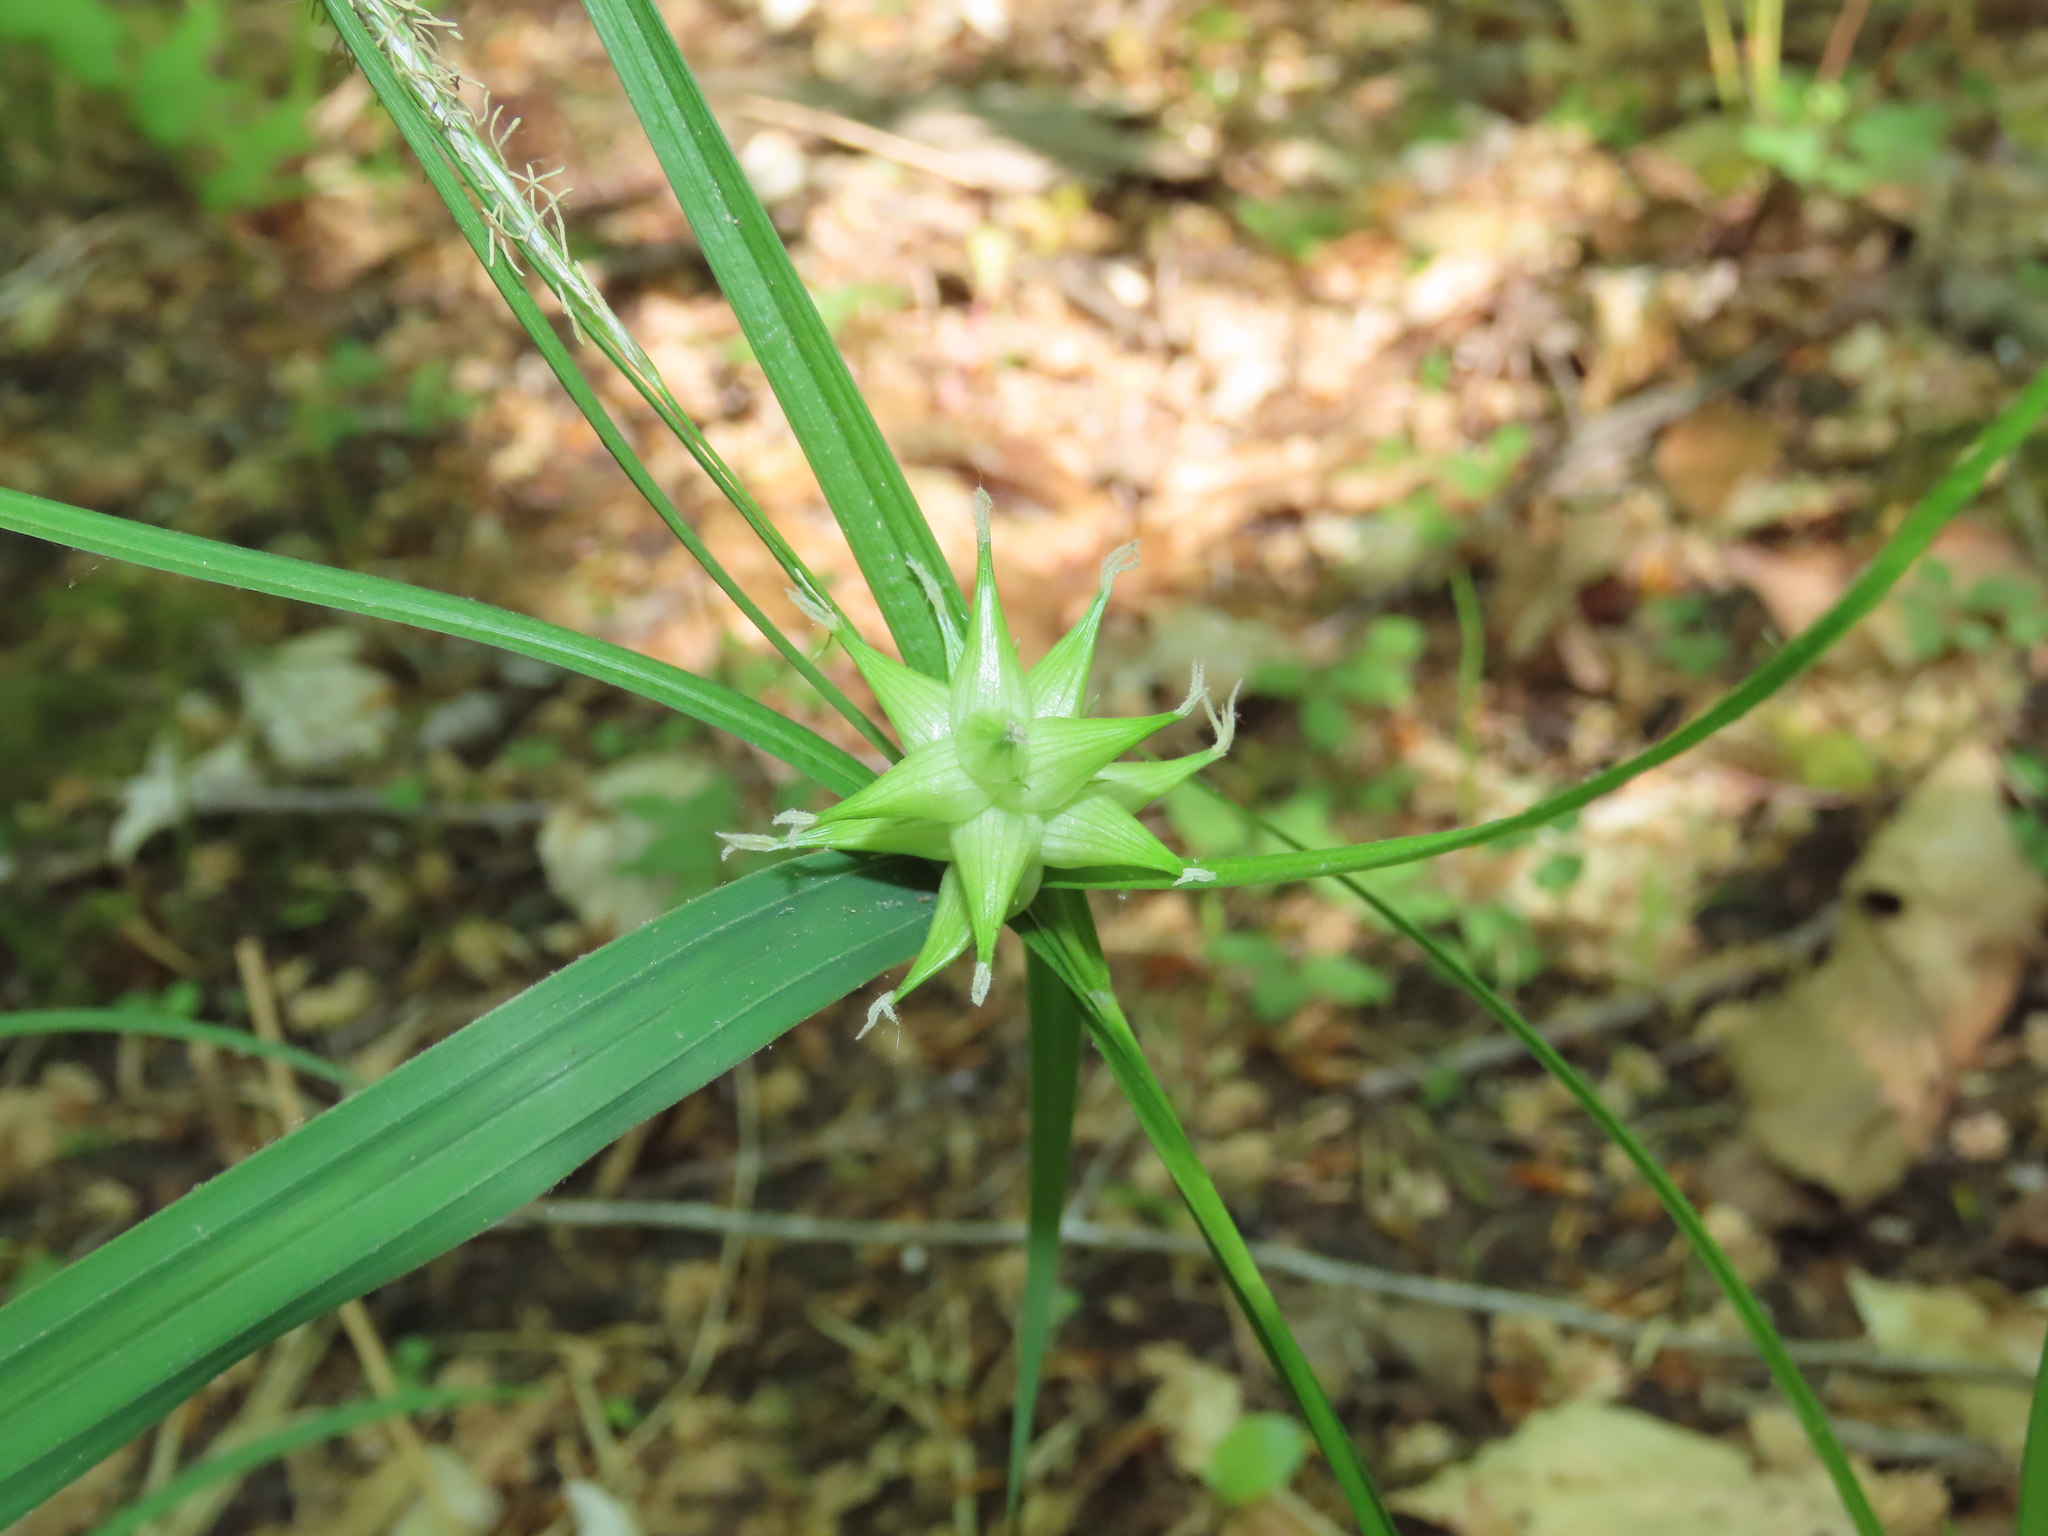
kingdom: Plantae
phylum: Tracheophyta
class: Liliopsida
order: Poales
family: Cyperaceae
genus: Carex
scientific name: Carex intumescens
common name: Greater bladder sedge
